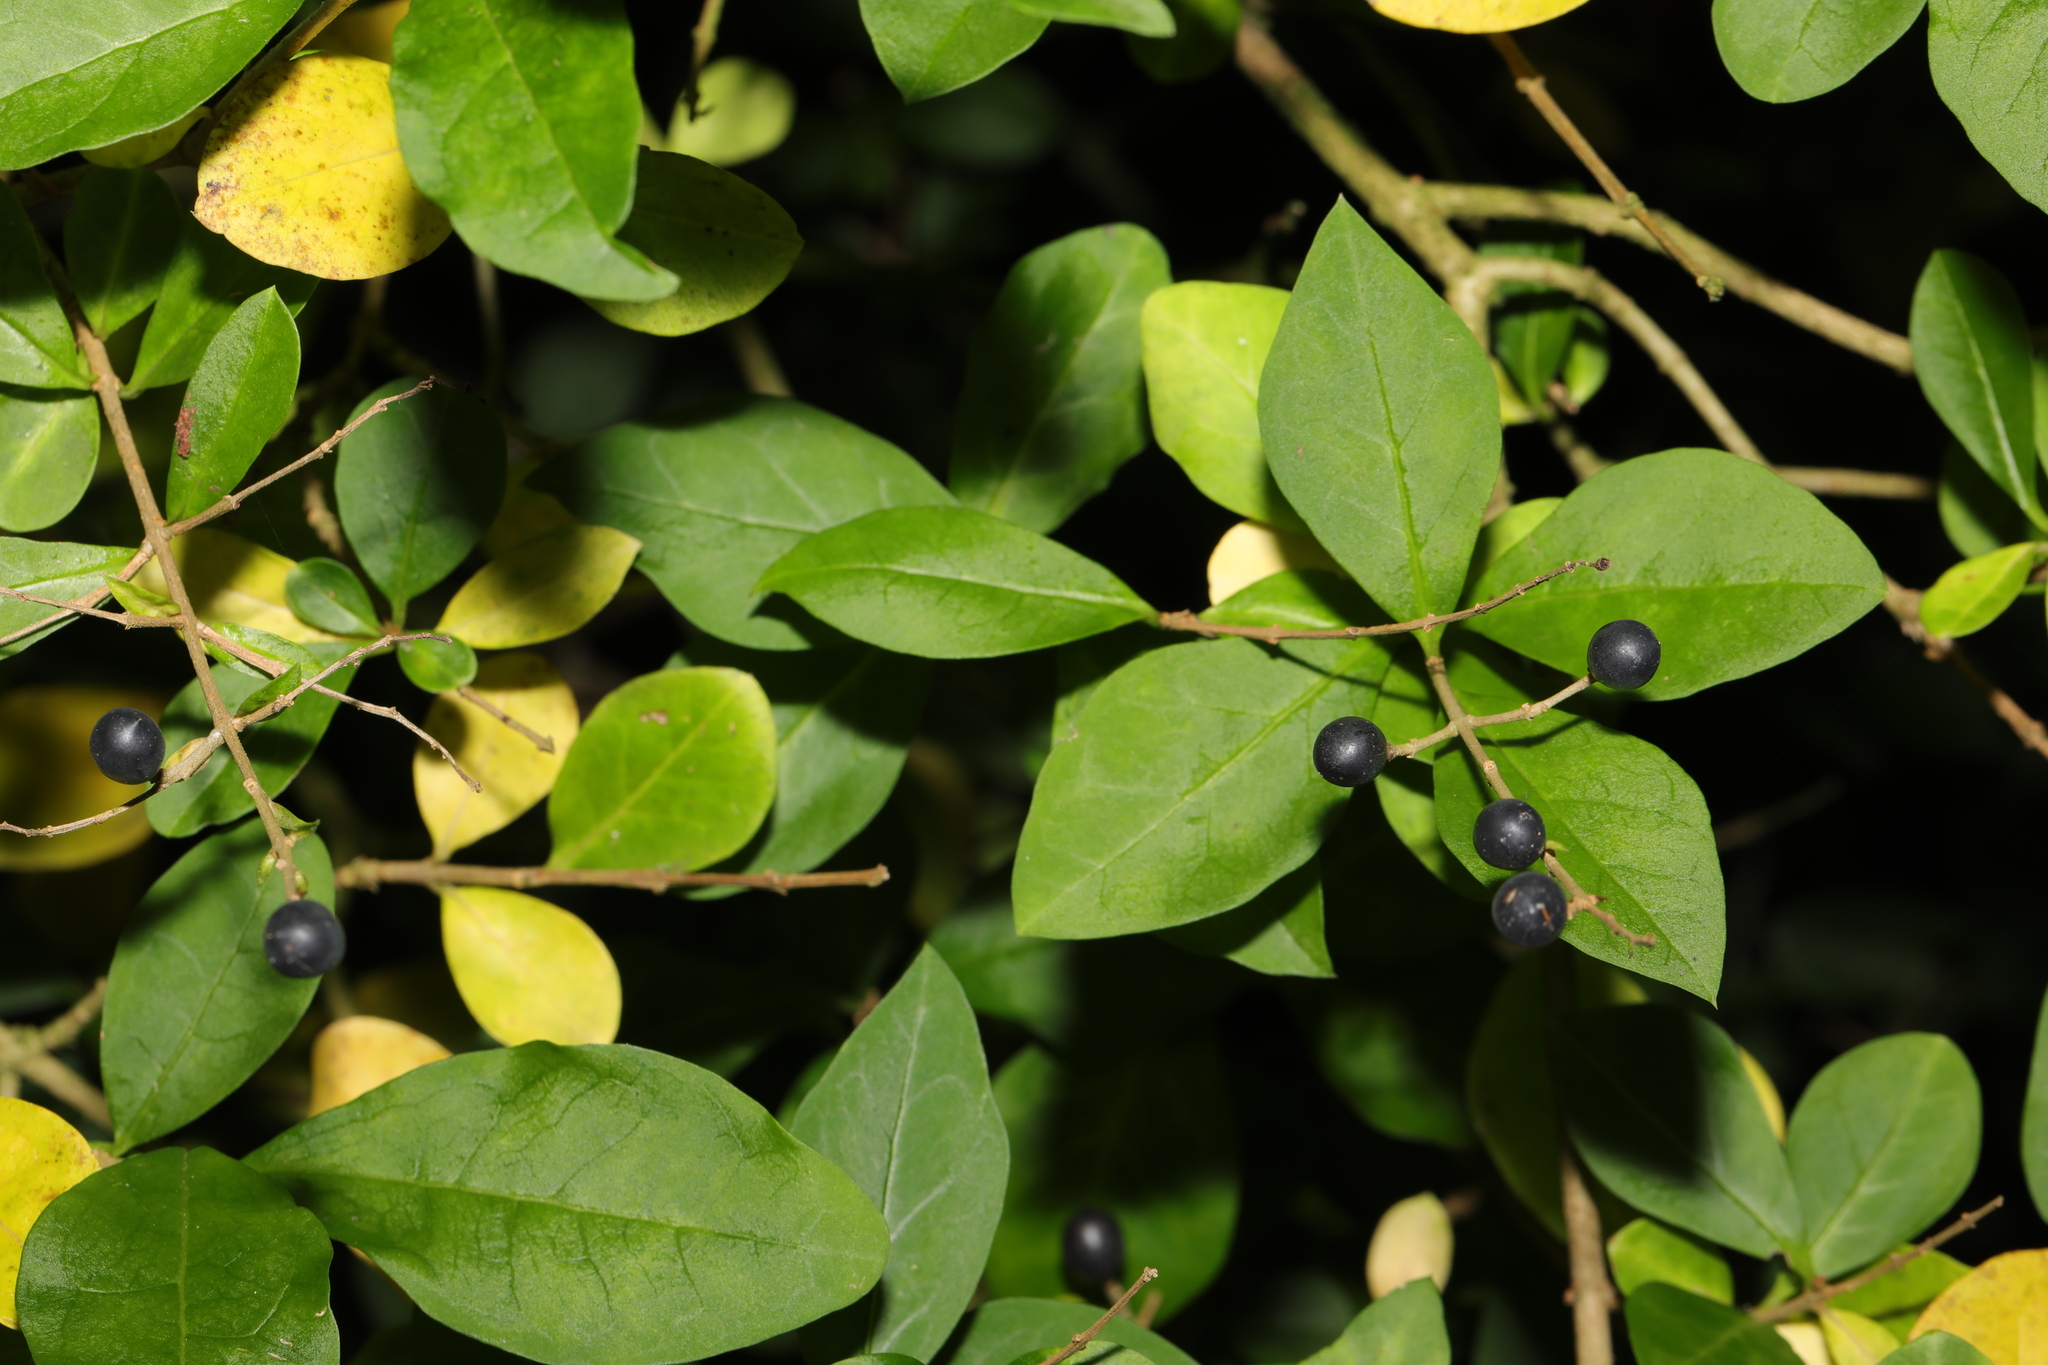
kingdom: Plantae
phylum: Tracheophyta
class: Magnoliopsida
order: Lamiales
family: Oleaceae
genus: Ligustrum
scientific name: Ligustrum ovalifolium
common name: California privet
